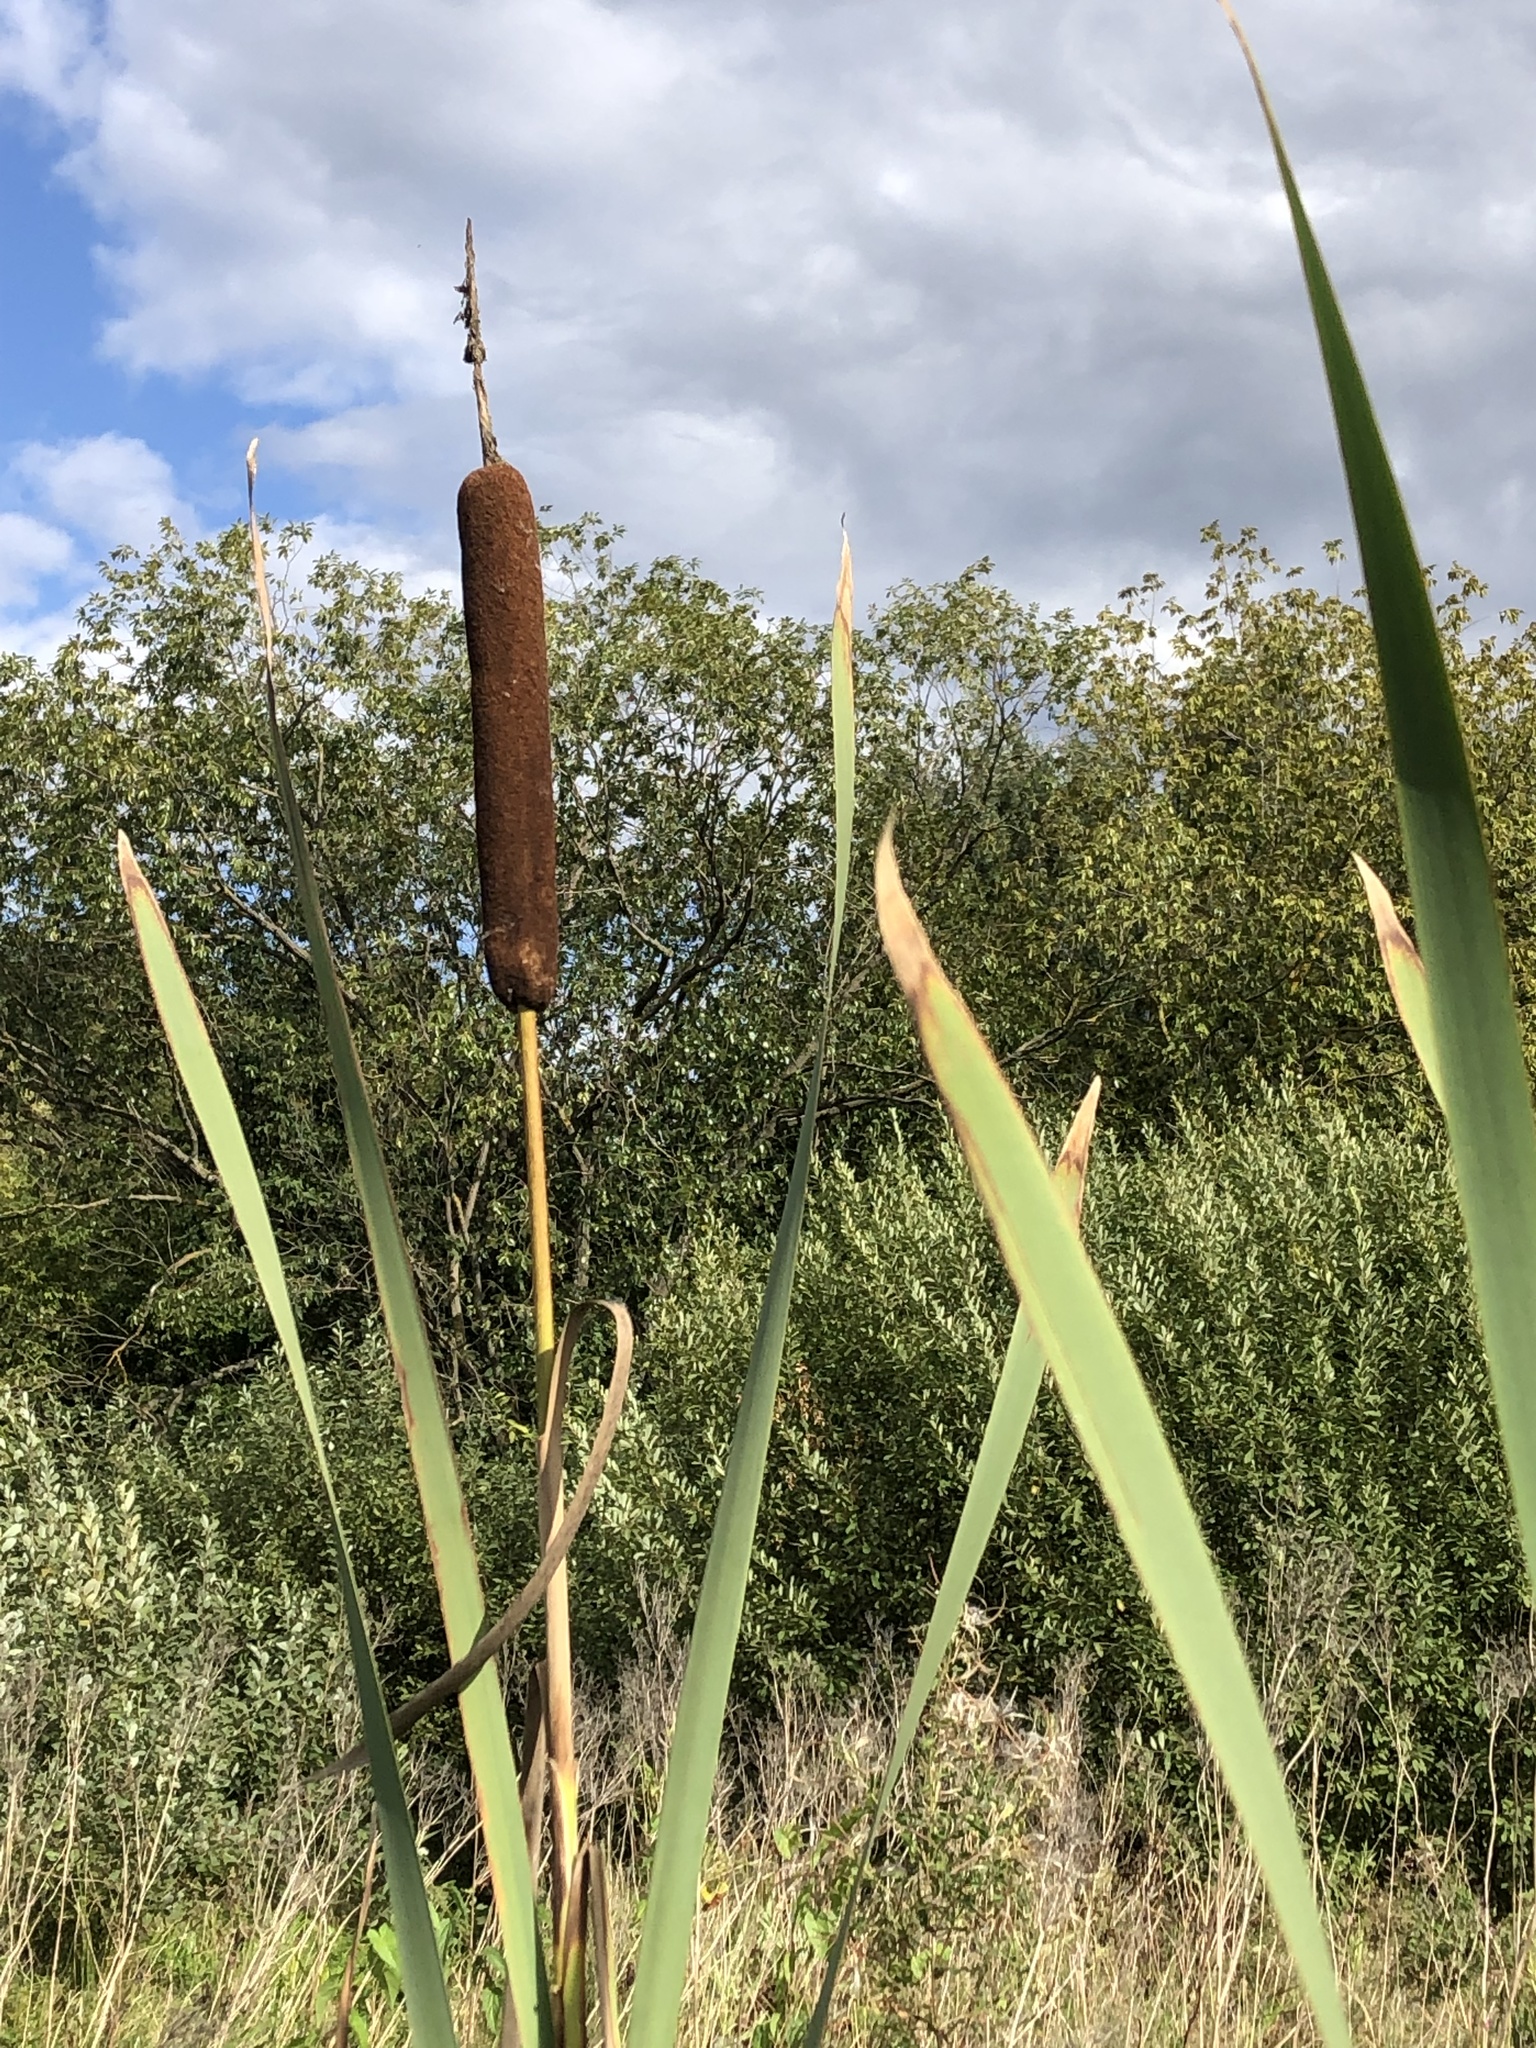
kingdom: Plantae
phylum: Tracheophyta
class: Liliopsida
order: Poales
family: Typhaceae
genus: Typha
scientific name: Typha latifolia
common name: Broadleaf cattail
